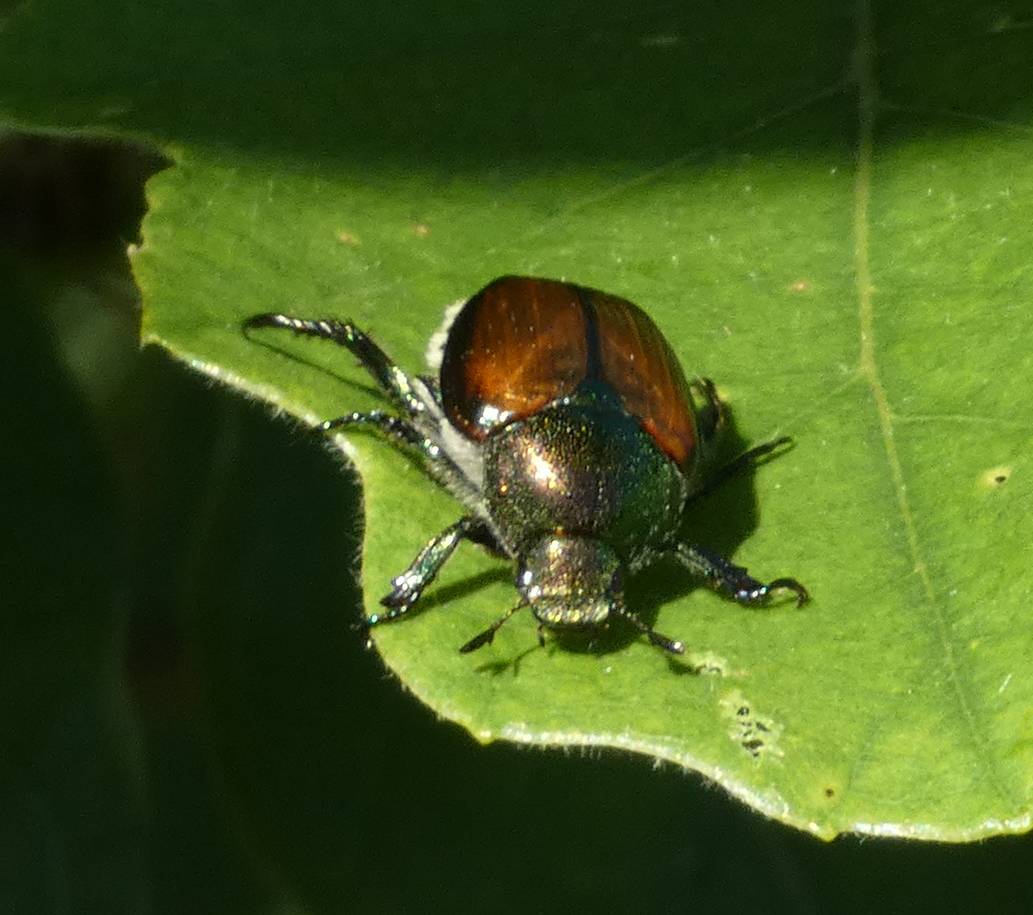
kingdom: Animalia
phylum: Arthropoda
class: Insecta
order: Coleoptera
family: Scarabaeidae
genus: Popillia
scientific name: Popillia japonica
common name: Japanese beetle
